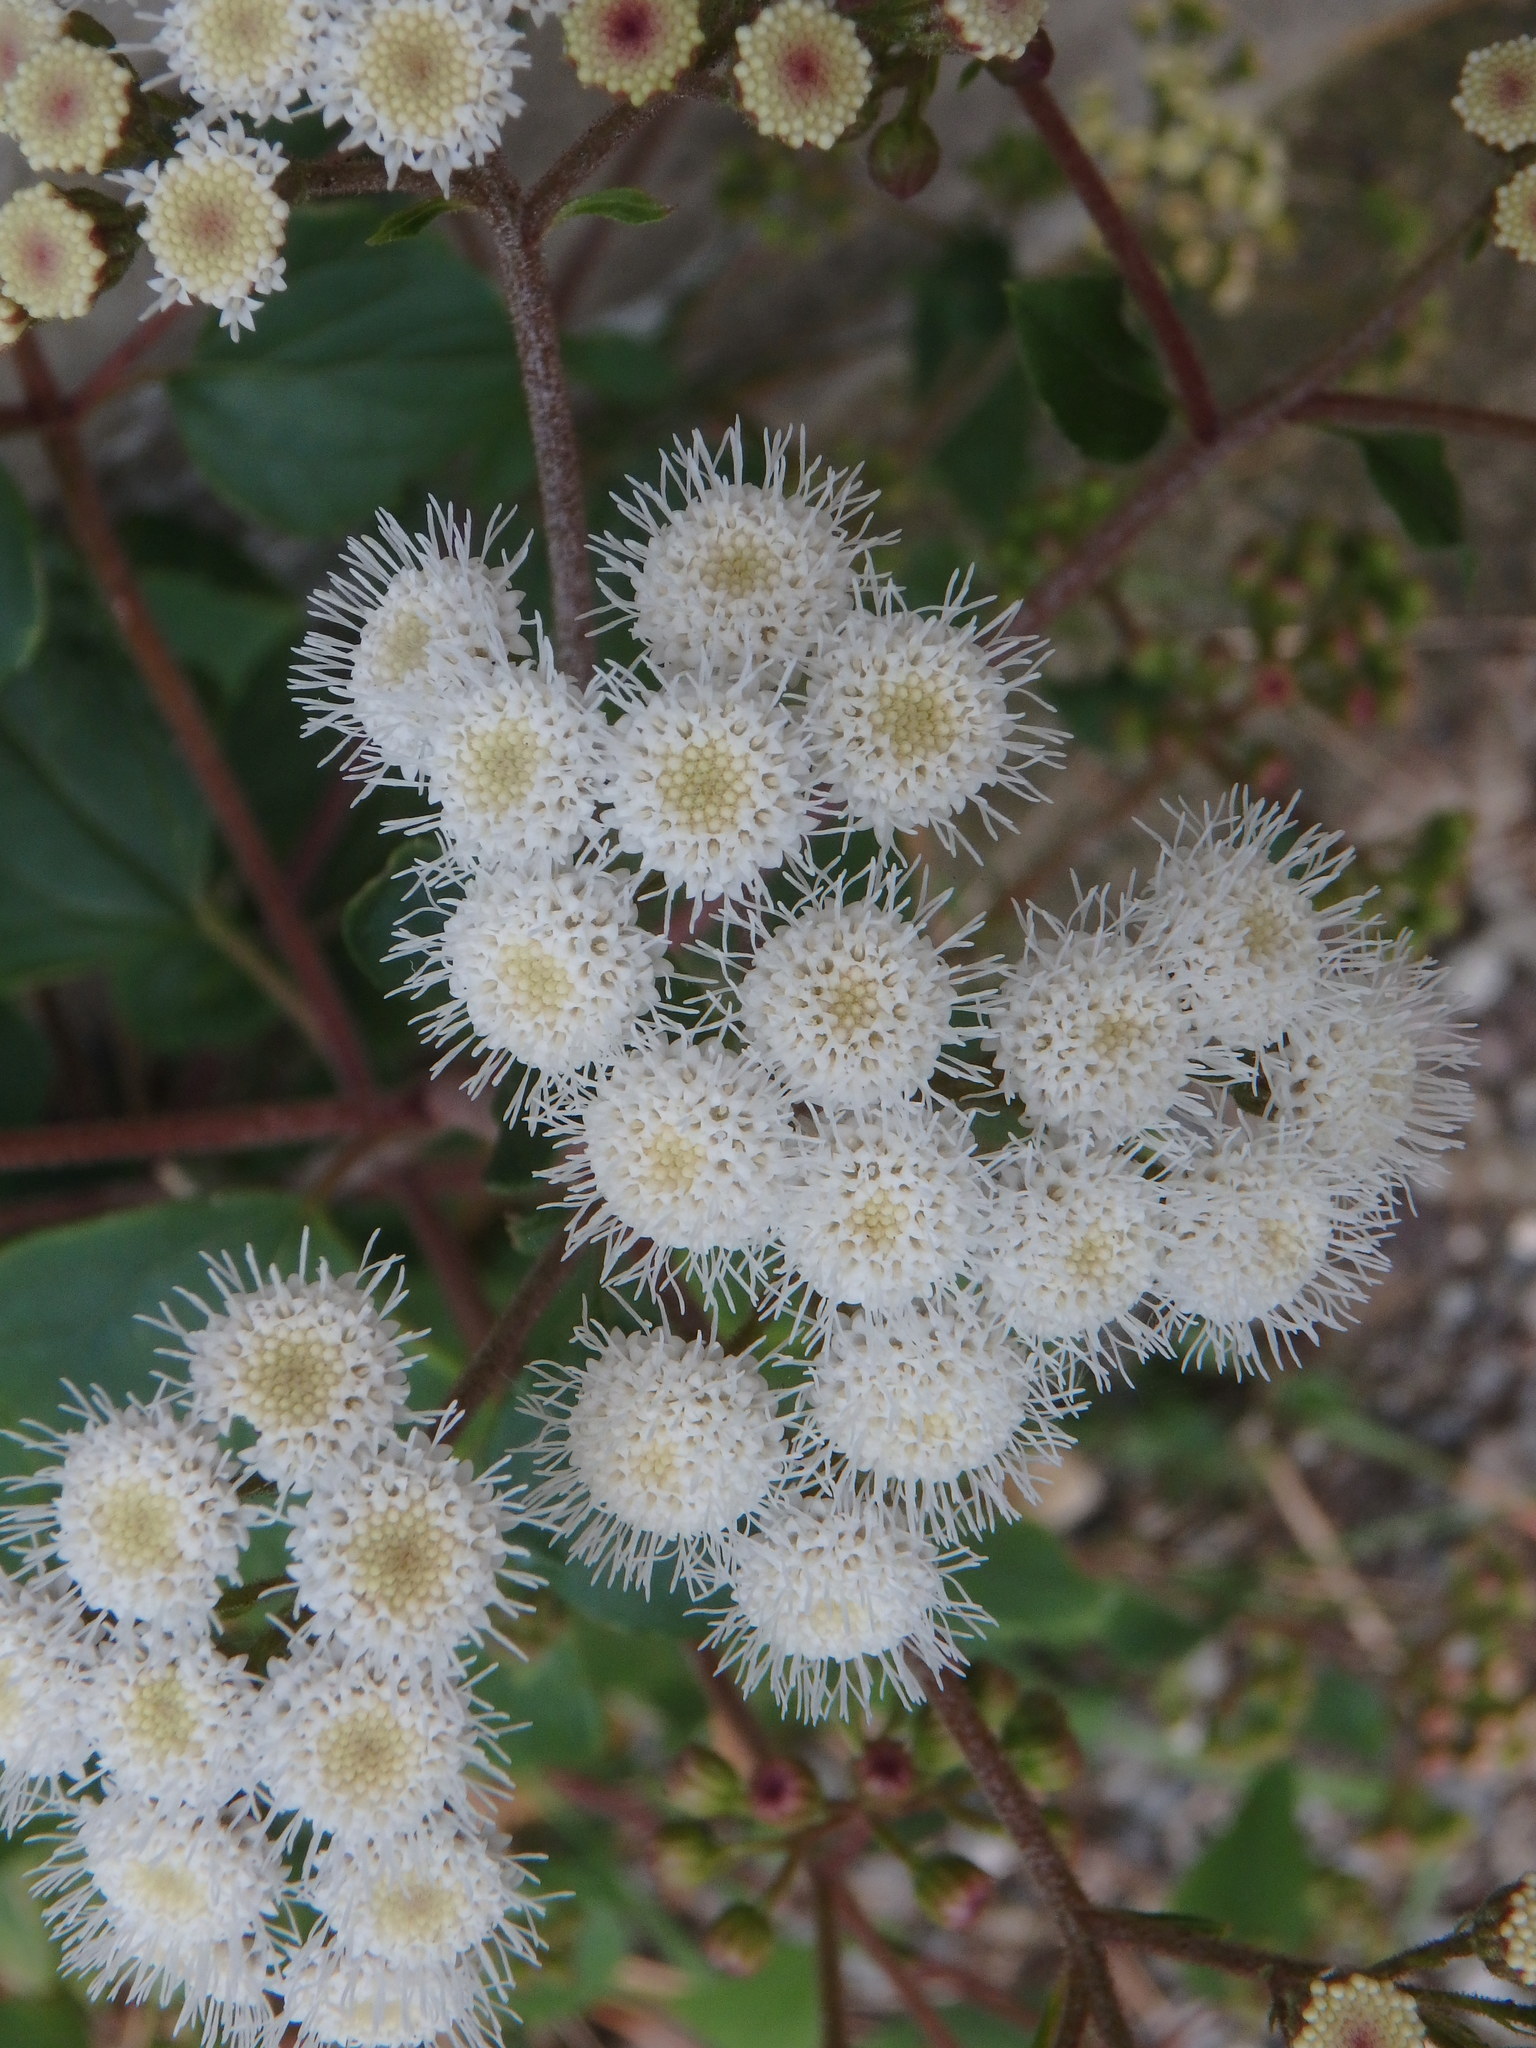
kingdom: Plantae
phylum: Tracheophyta
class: Magnoliopsida
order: Asterales
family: Asteraceae
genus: Ageratina
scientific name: Ageratina adenophora
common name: Sticky snakeroot
